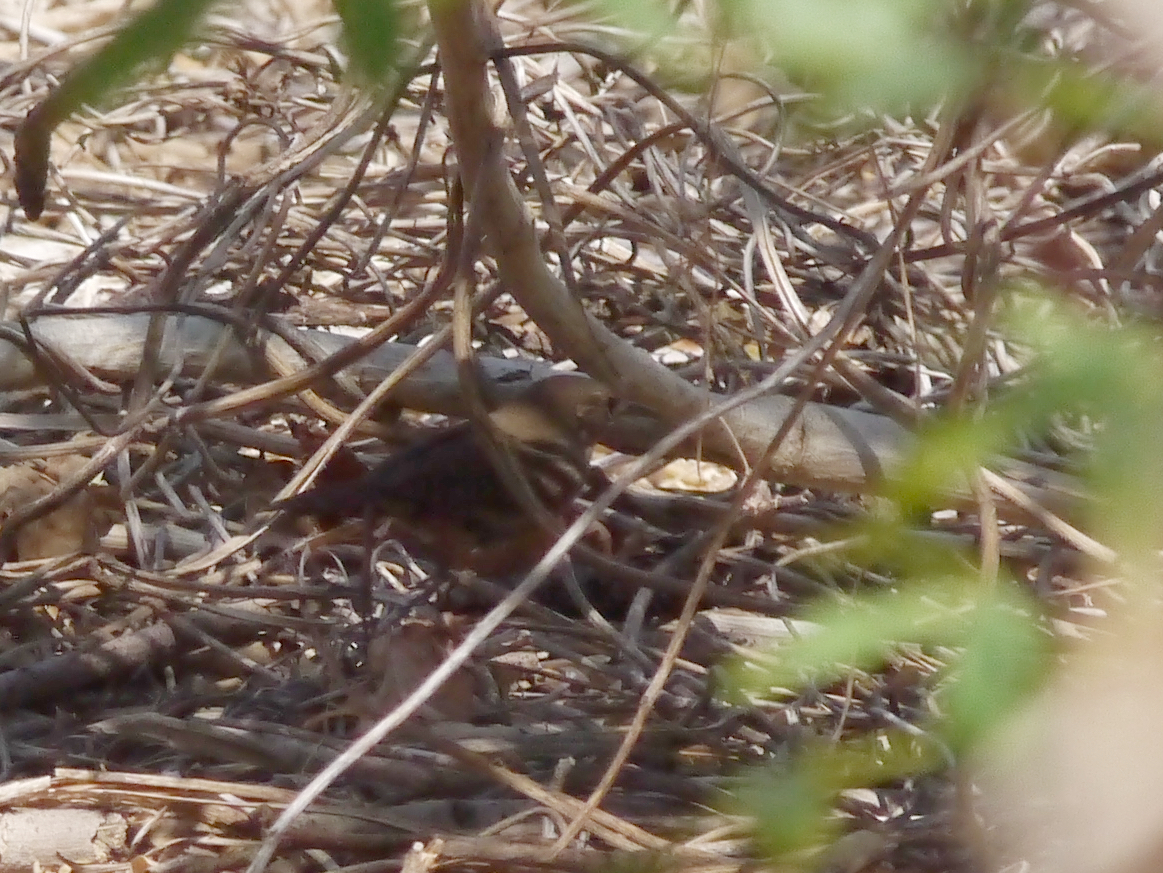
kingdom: Animalia
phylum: Chordata
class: Aves
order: Passeriformes
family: Troglodytidae
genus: Troglodytes
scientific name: Troglodytes aedon
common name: House wren
